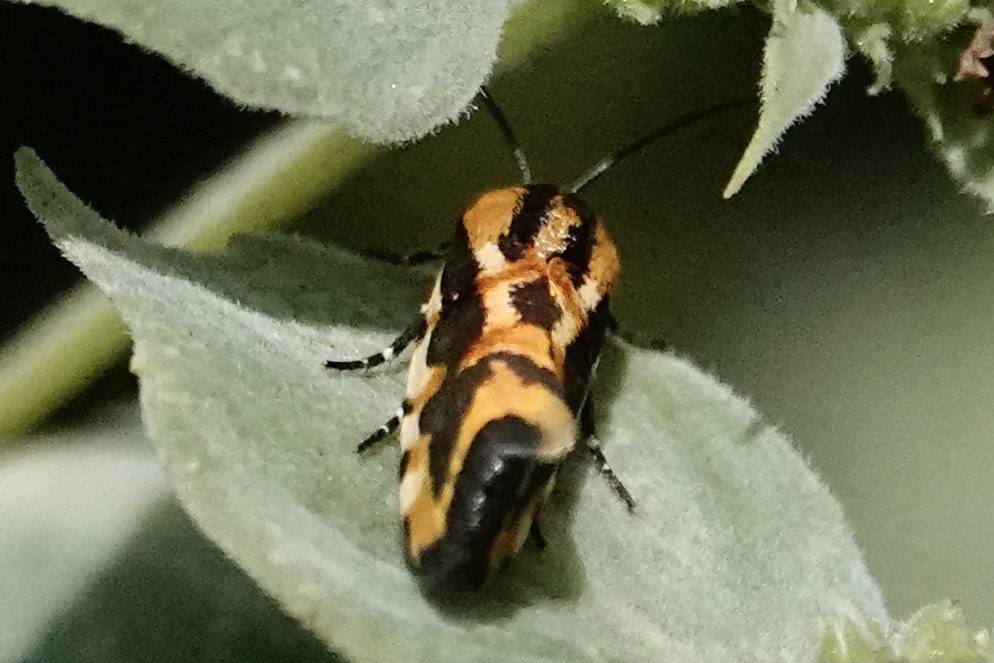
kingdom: Animalia
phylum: Arthropoda
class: Insecta
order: Lepidoptera
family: Noctuidae
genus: Acontia
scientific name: Acontia leo
